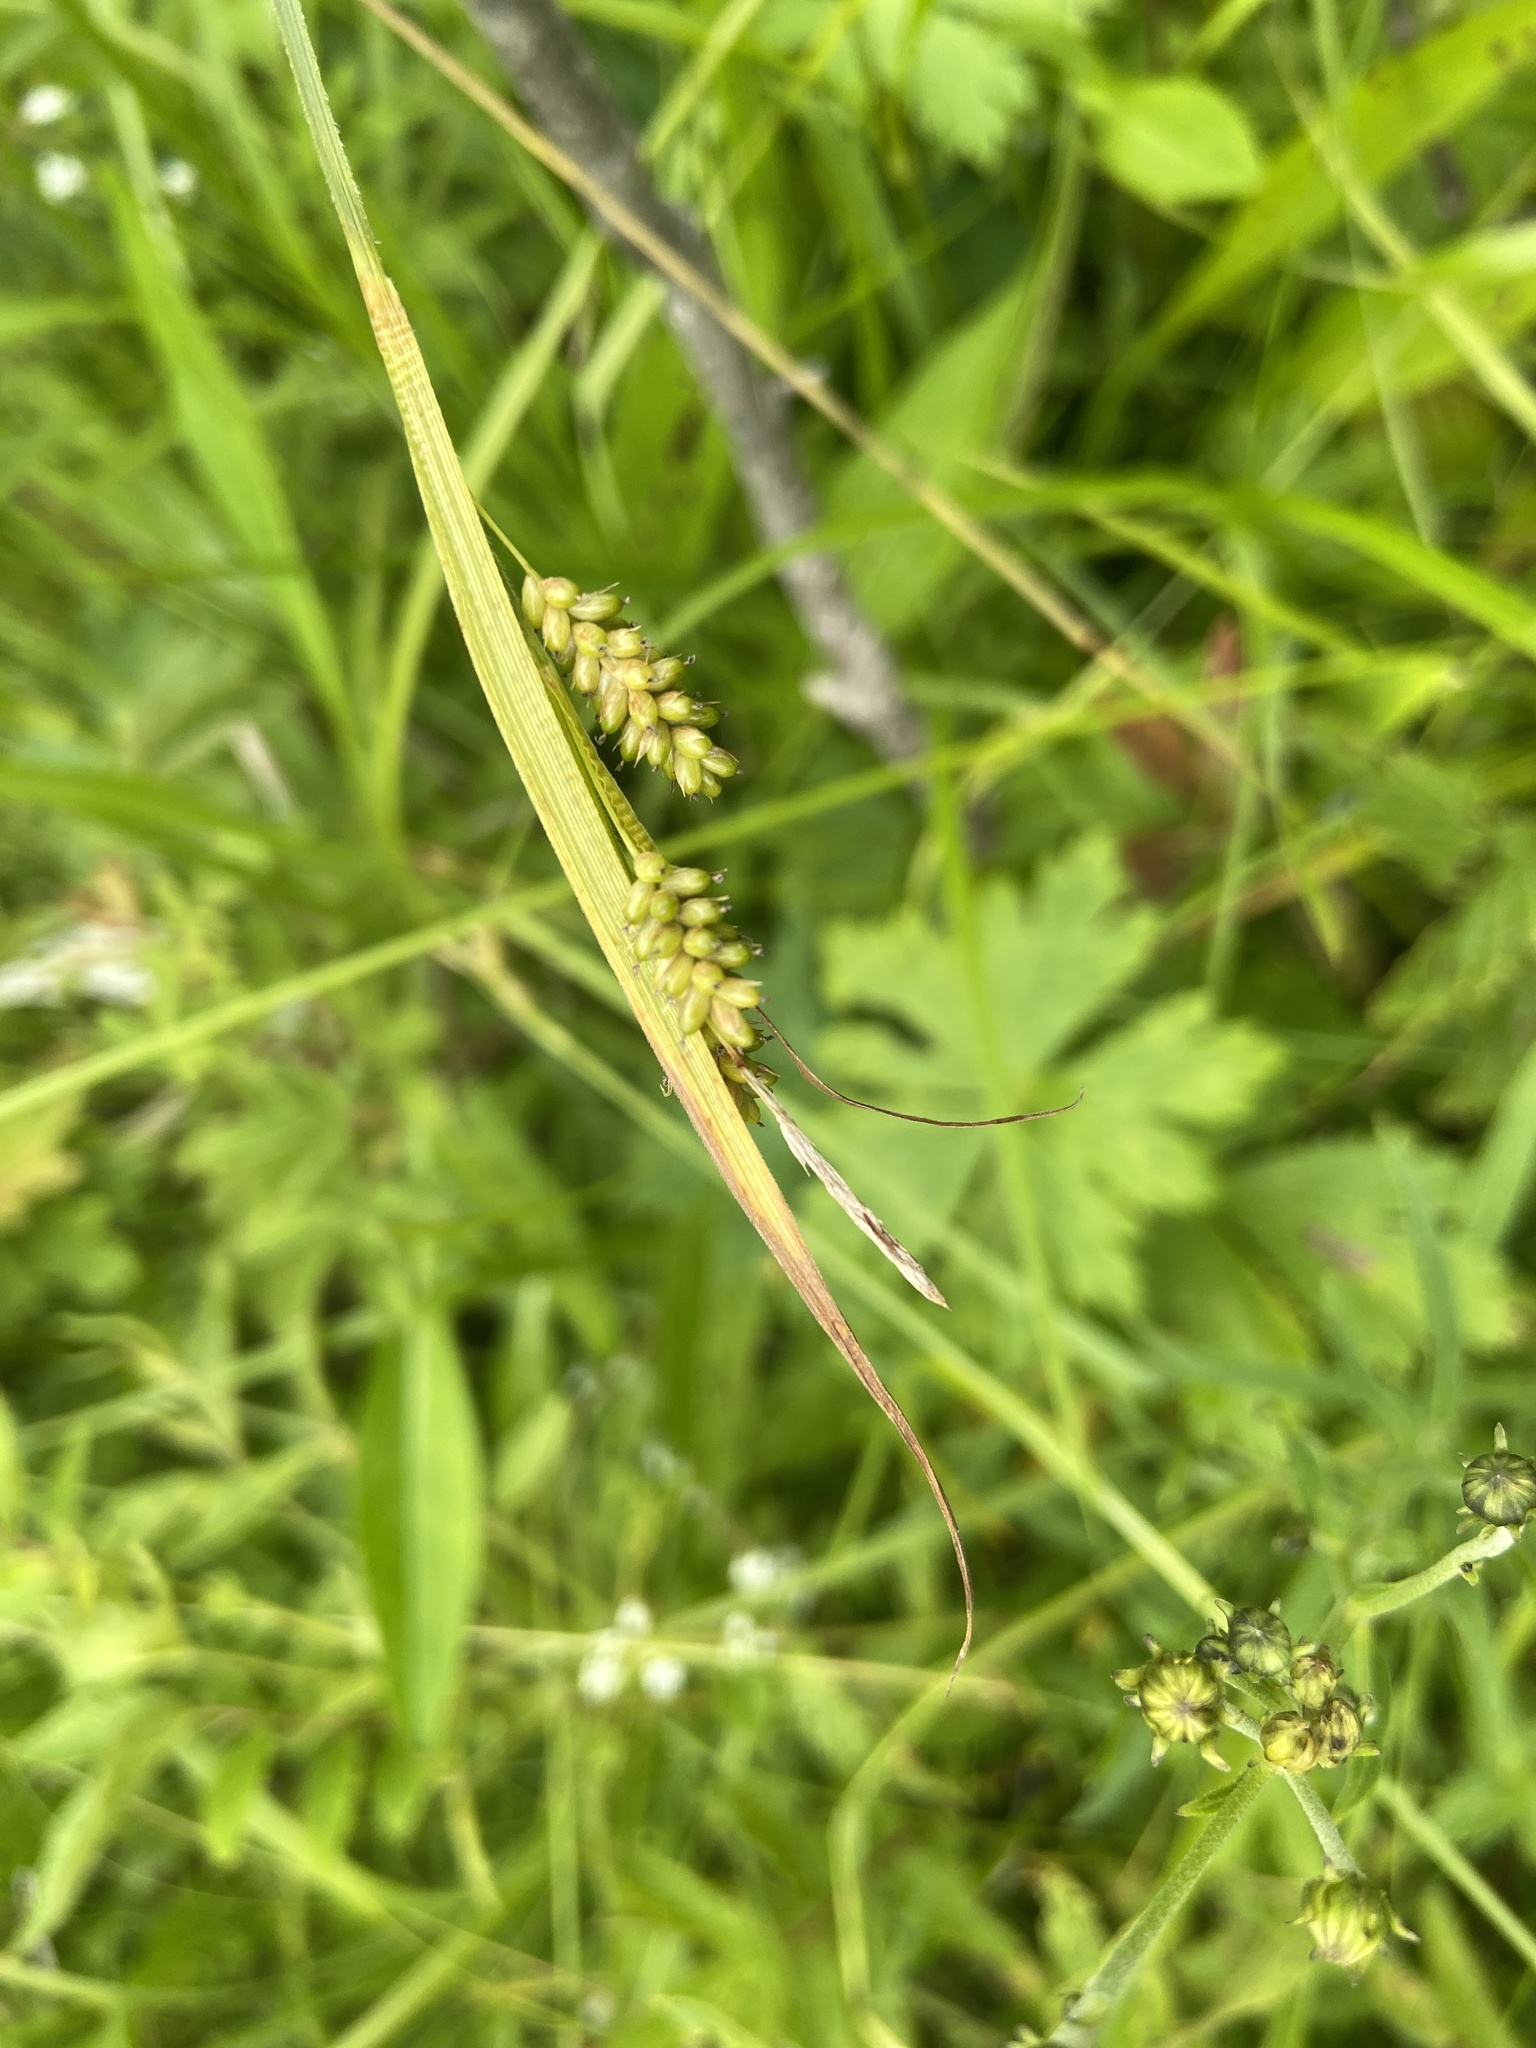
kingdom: Plantae
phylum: Tracheophyta
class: Liliopsida
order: Poales
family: Cyperaceae
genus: Carex
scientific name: Carex pallescens
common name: Pale sedge
